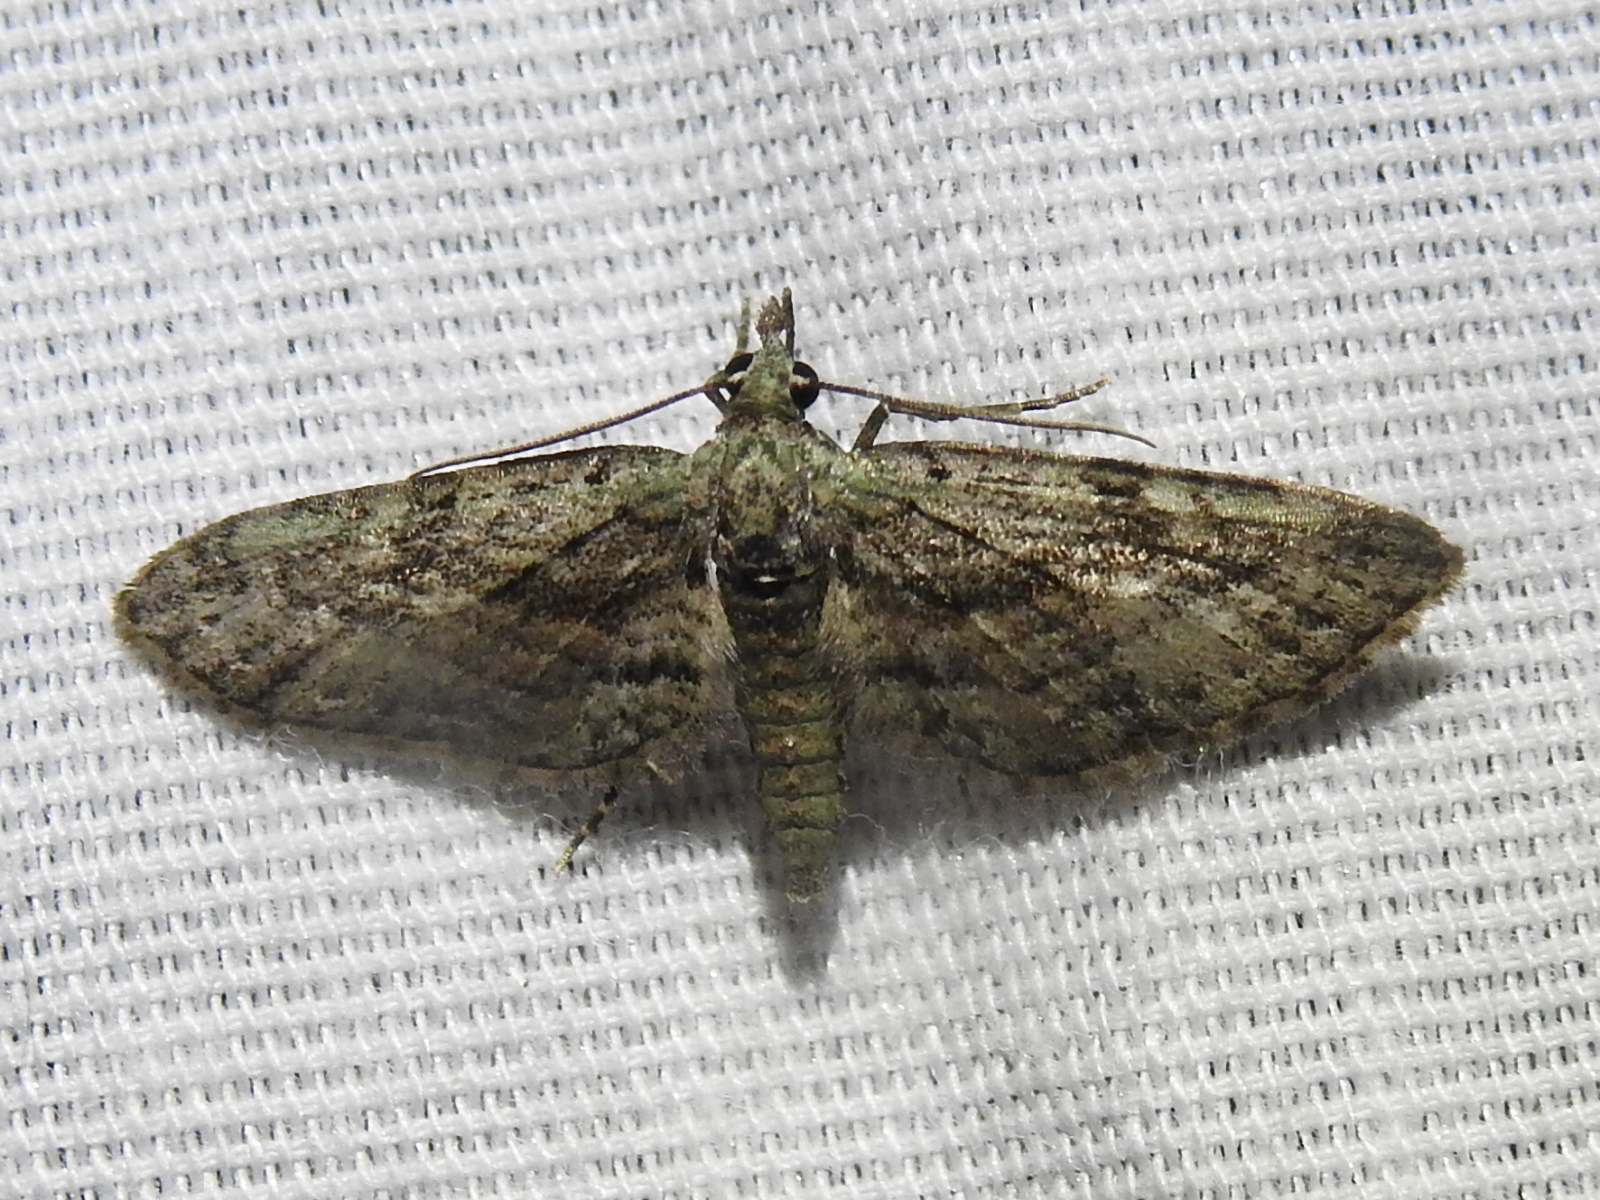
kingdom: Animalia
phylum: Arthropoda
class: Insecta
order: Lepidoptera
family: Geometridae
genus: Eupithecia
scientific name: Eupithecia longidens
